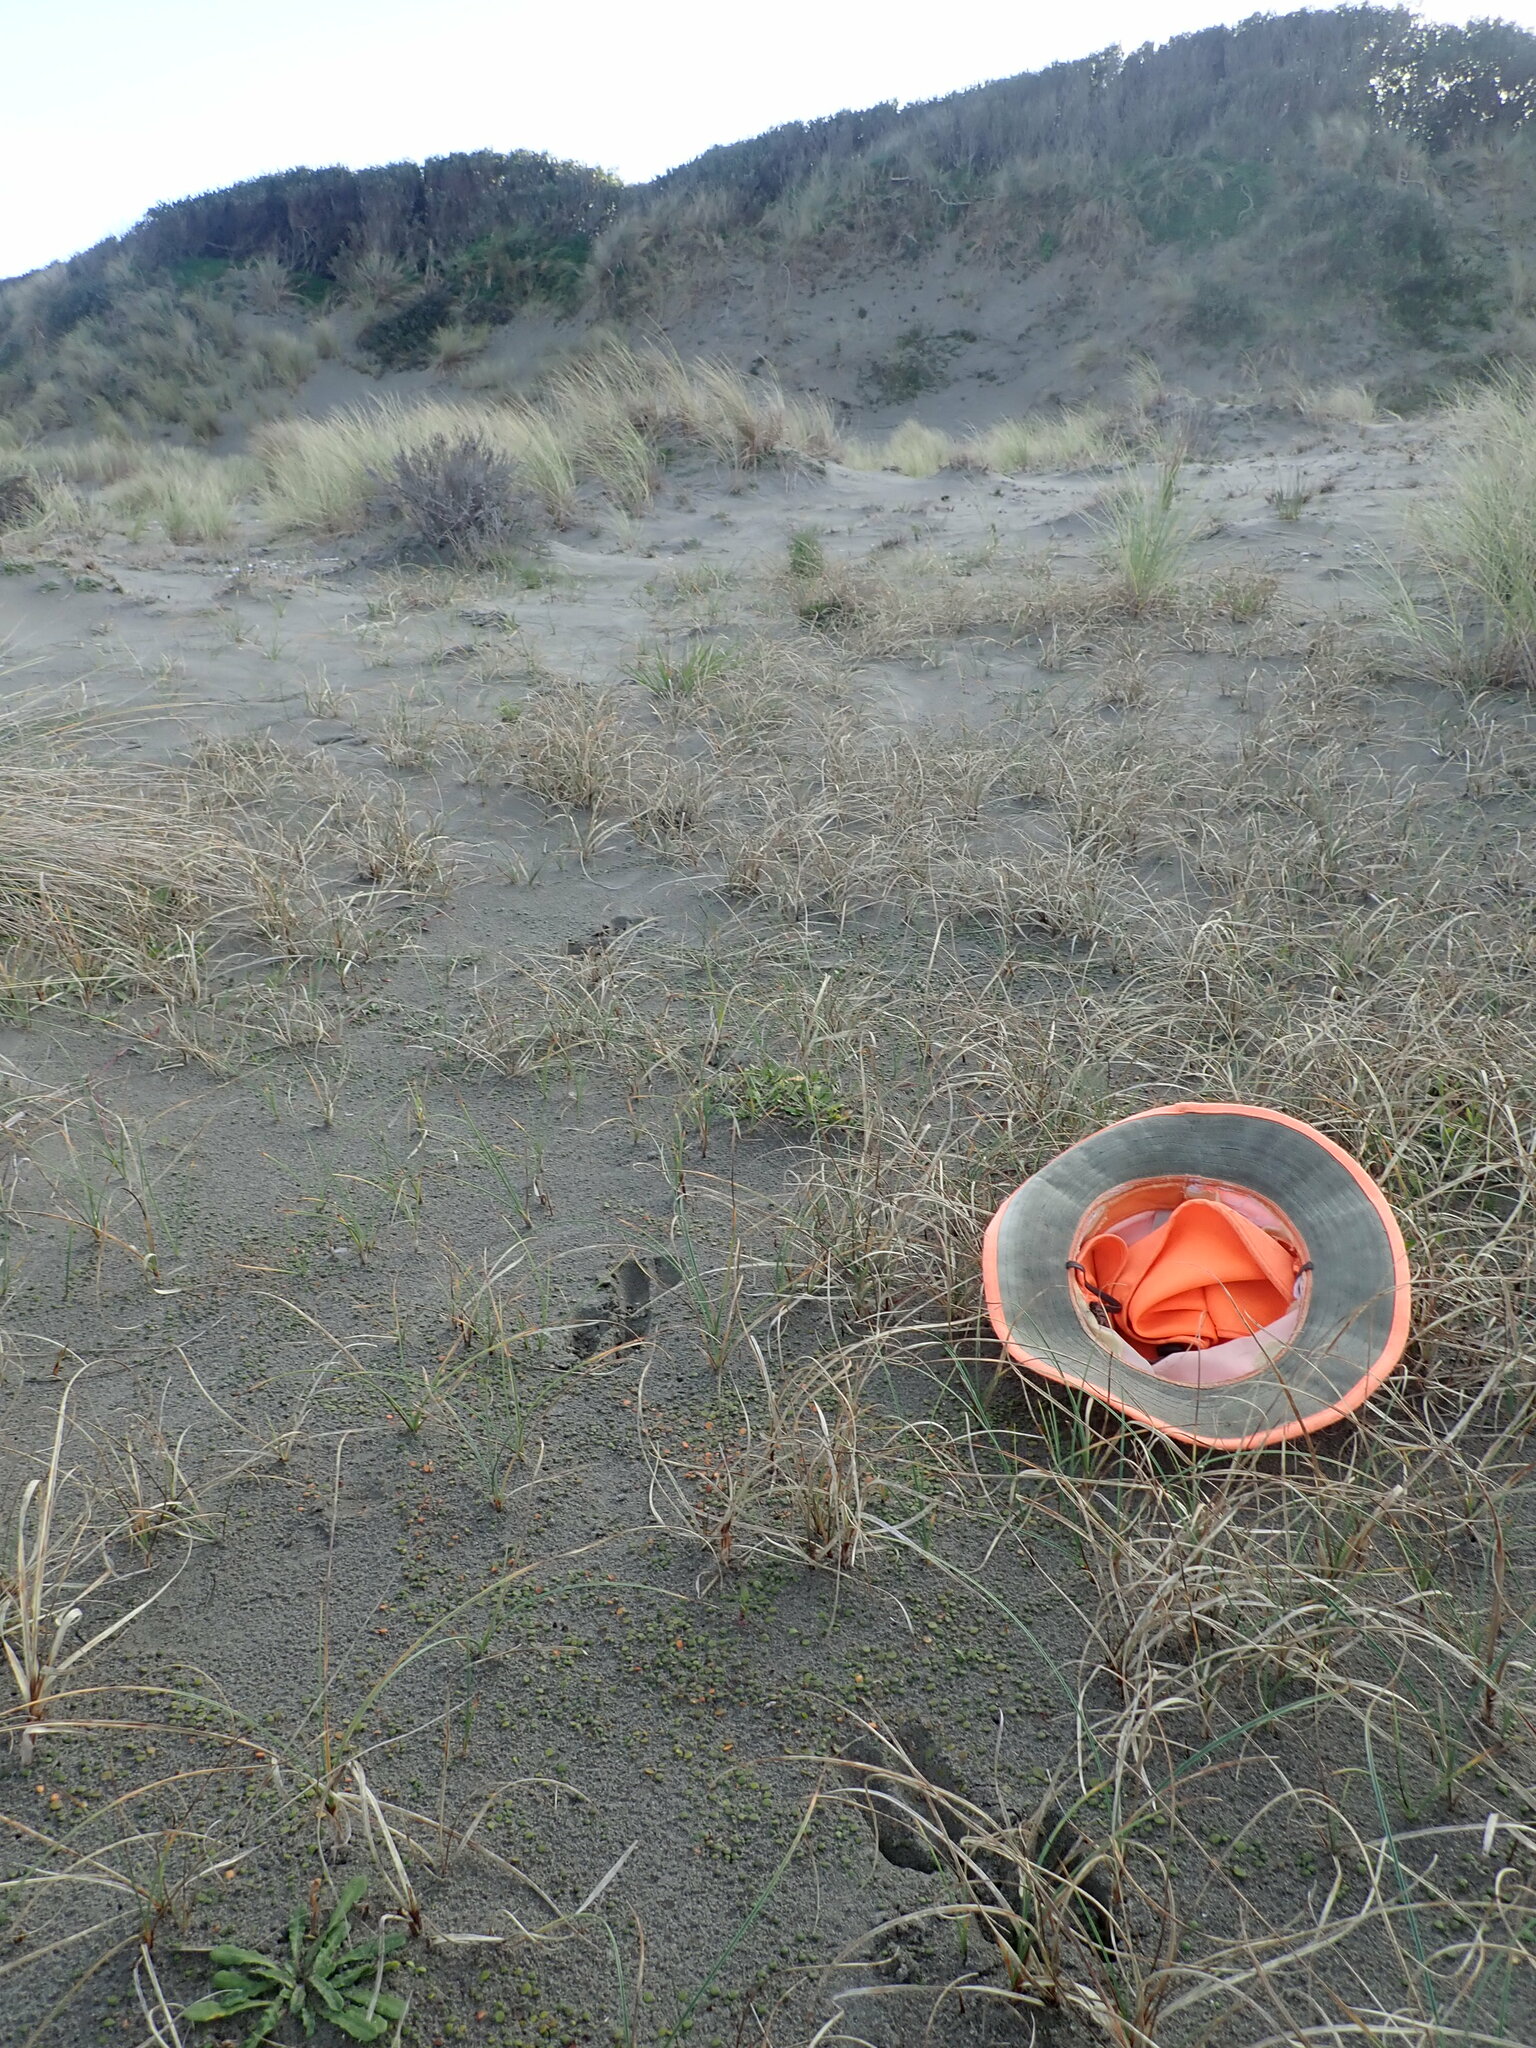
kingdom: Plantae
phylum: Tracheophyta
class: Liliopsida
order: Poales
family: Cyperaceae
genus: Carex
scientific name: Carex pumila
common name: Dwarf sedge
